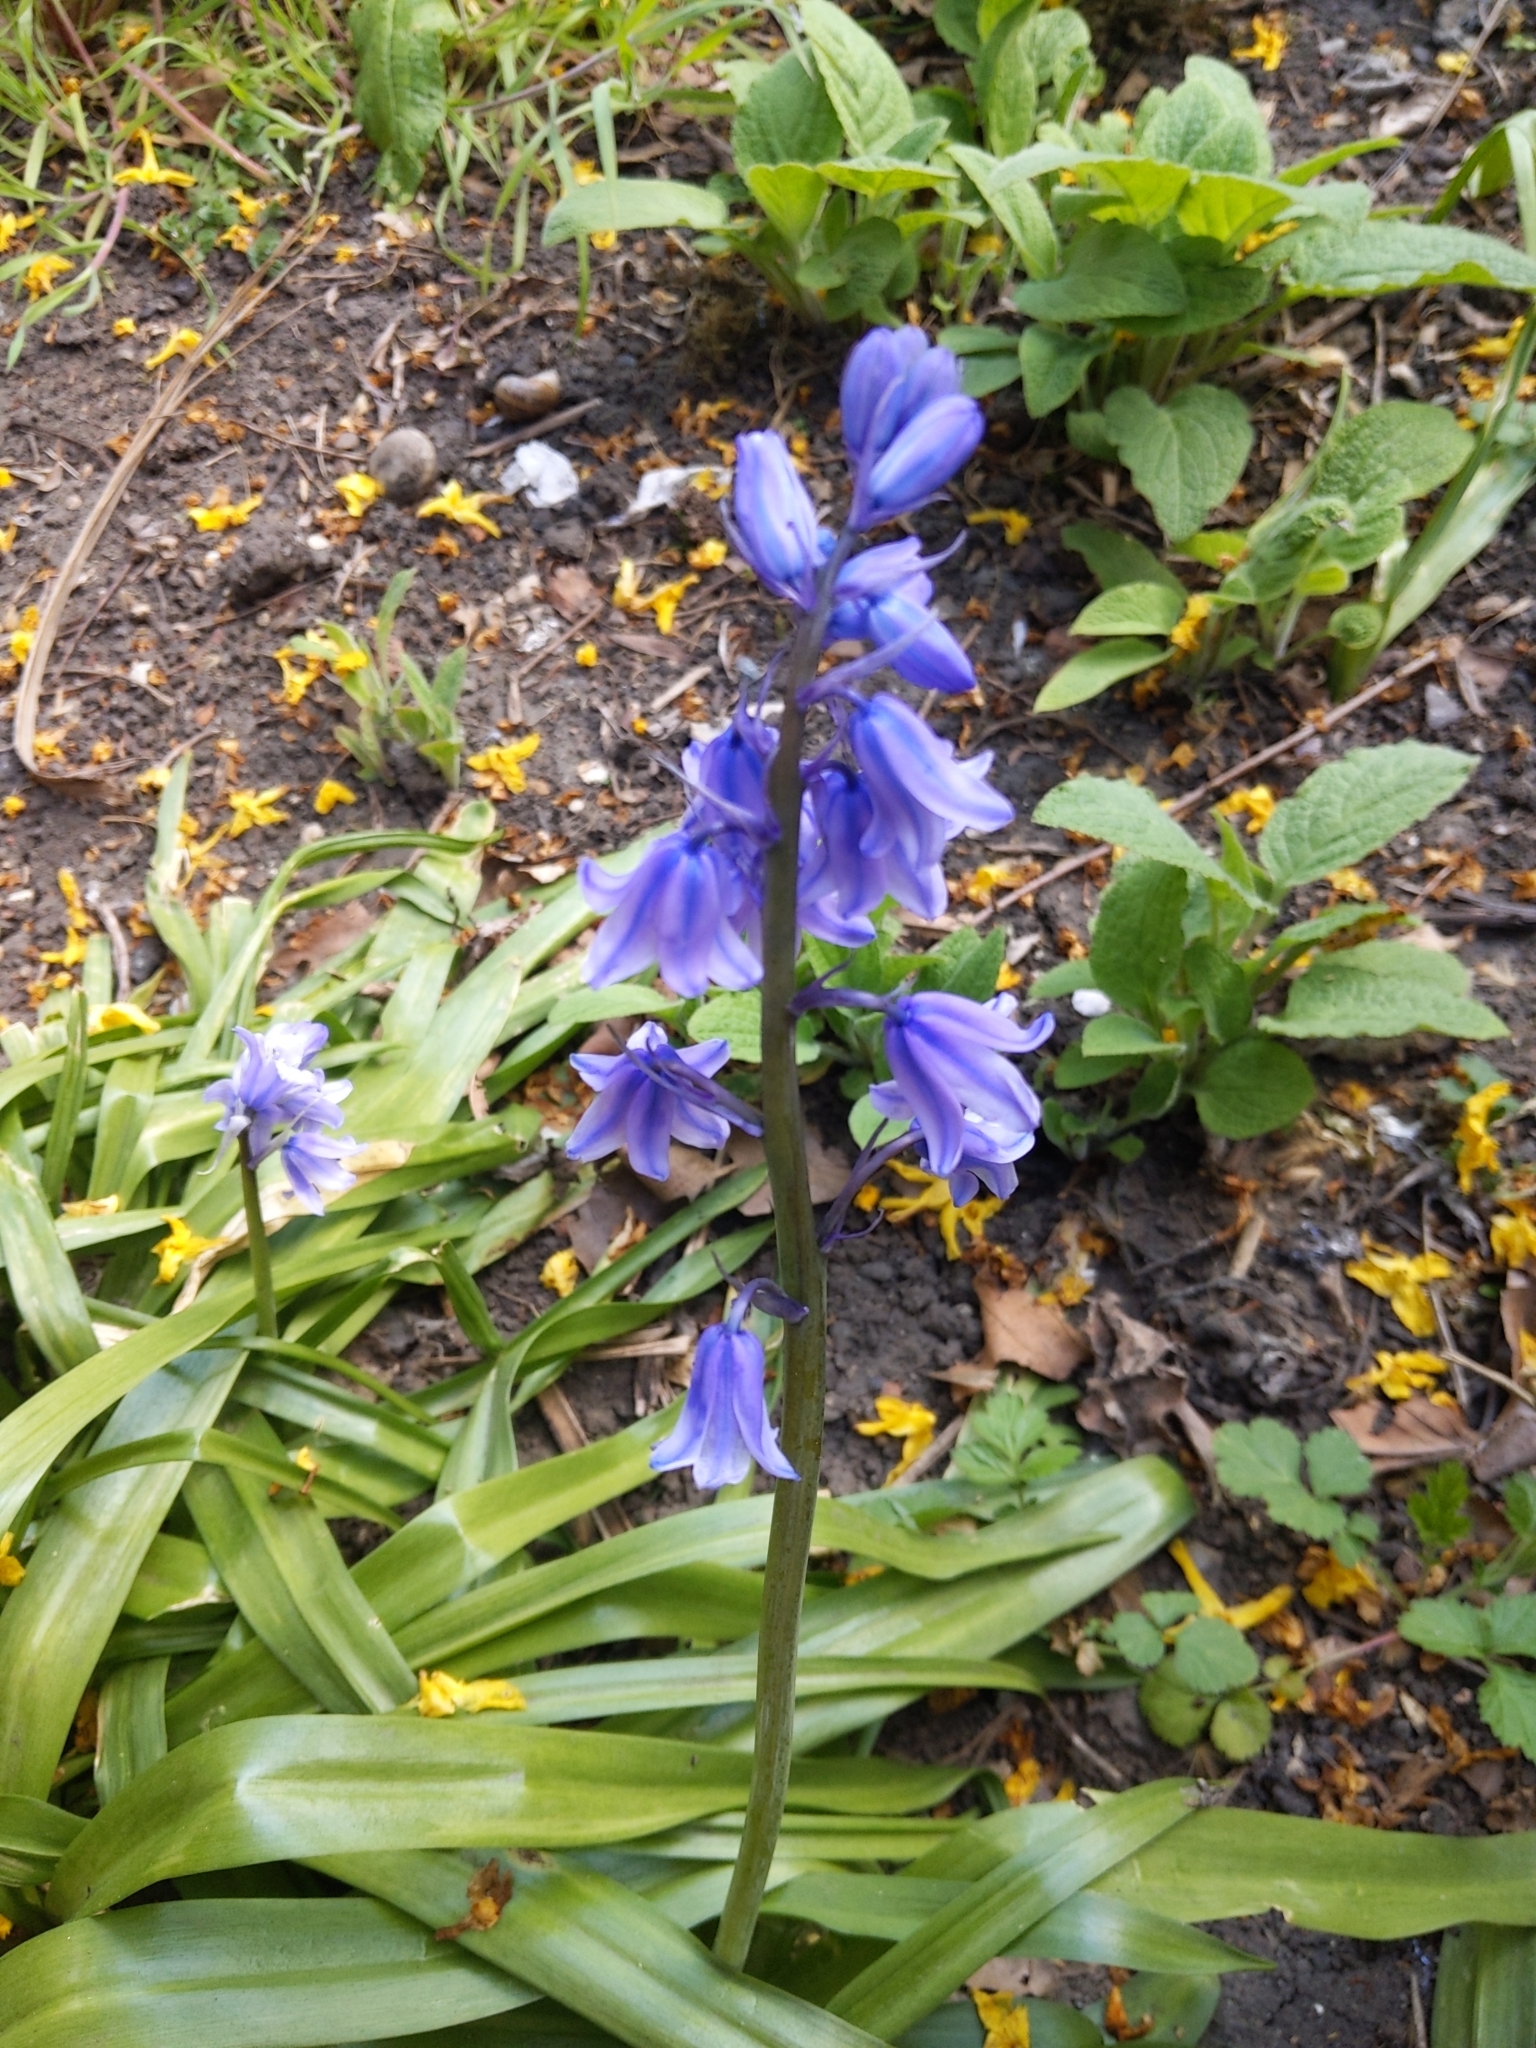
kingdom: Plantae
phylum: Tracheophyta
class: Liliopsida
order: Asparagales
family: Asparagaceae
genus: Hyacinthoides
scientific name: Hyacinthoides massartiana
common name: Hyacinthoides
